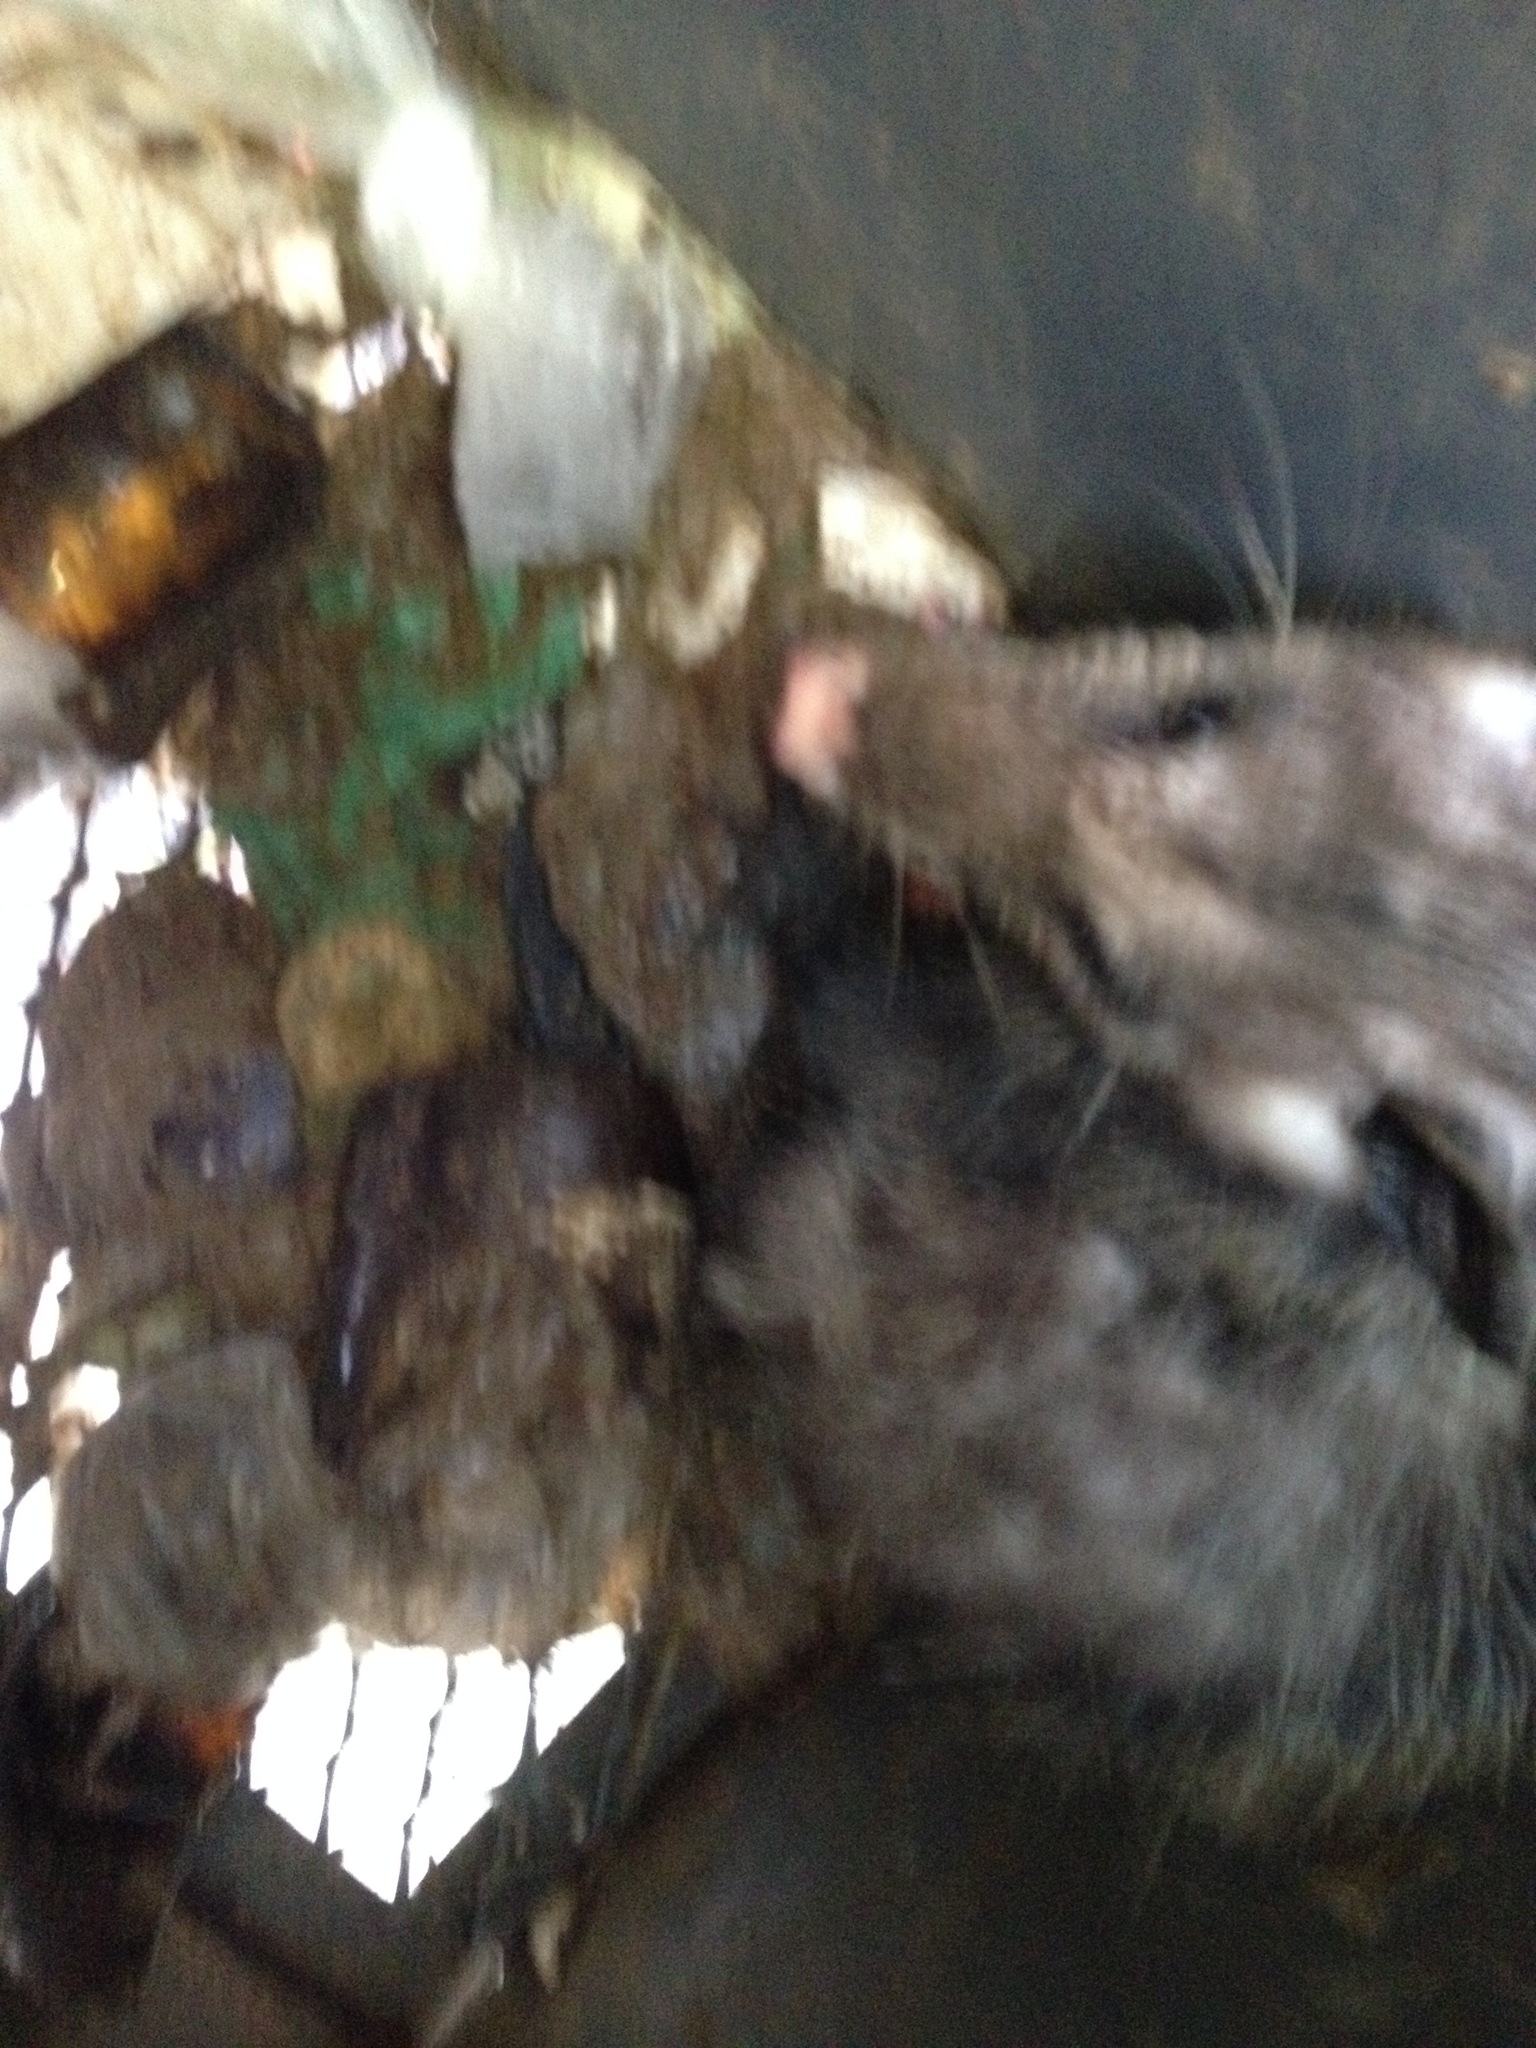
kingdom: Animalia
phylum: Chordata
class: Mammalia
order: Didelphimorphia
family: Didelphidae
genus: Didelphis
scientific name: Didelphis virginiana
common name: Virginia opossum
